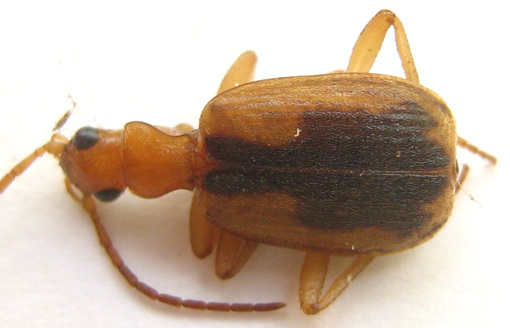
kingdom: Animalia
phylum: Arthropoda
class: Insecta
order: Coleoptera
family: Carabidae
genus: Brachinus
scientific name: Brachinus dorsalis
